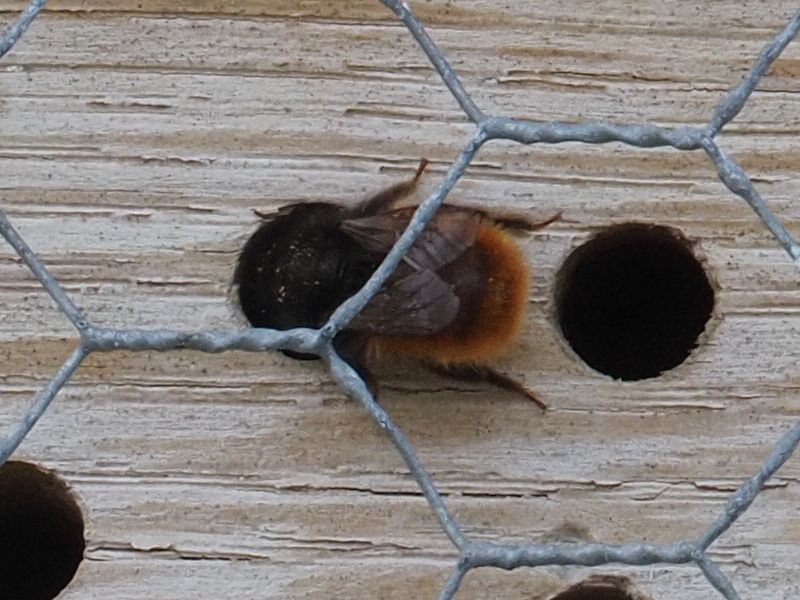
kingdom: Animalia
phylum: Arthropoda
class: Insecta
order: Hymenoptera
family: Megachilidae
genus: Osmia
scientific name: Osmia cornuta
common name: Mason bee
